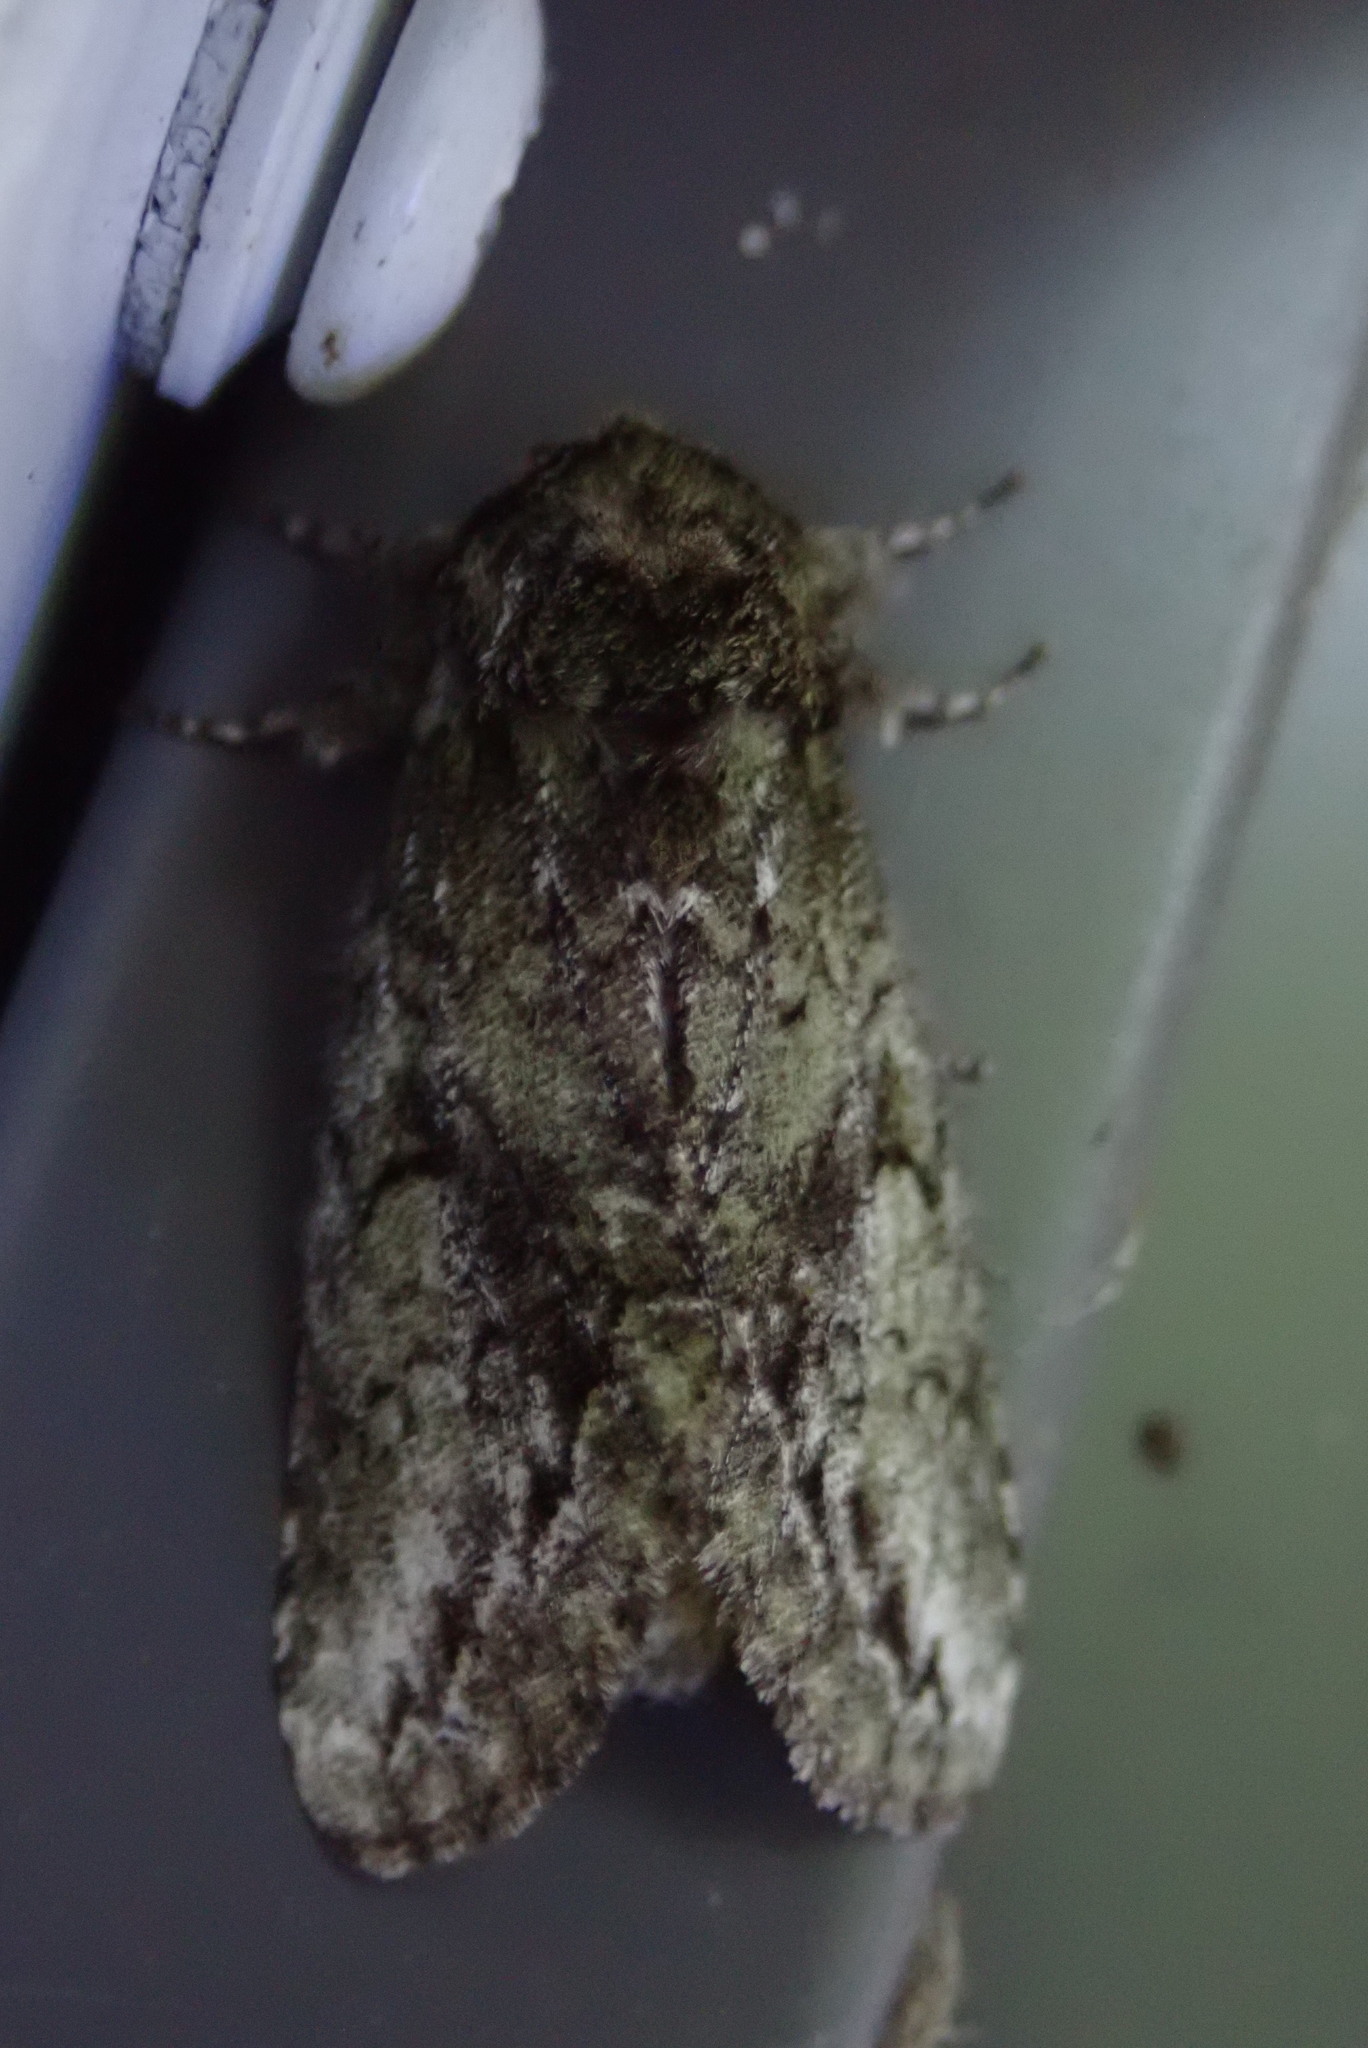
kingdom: Animalia
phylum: Arthropoda
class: Insecta
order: Lepidoptera
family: Notodontidae
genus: Heterocampa
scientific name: Heterocampa
